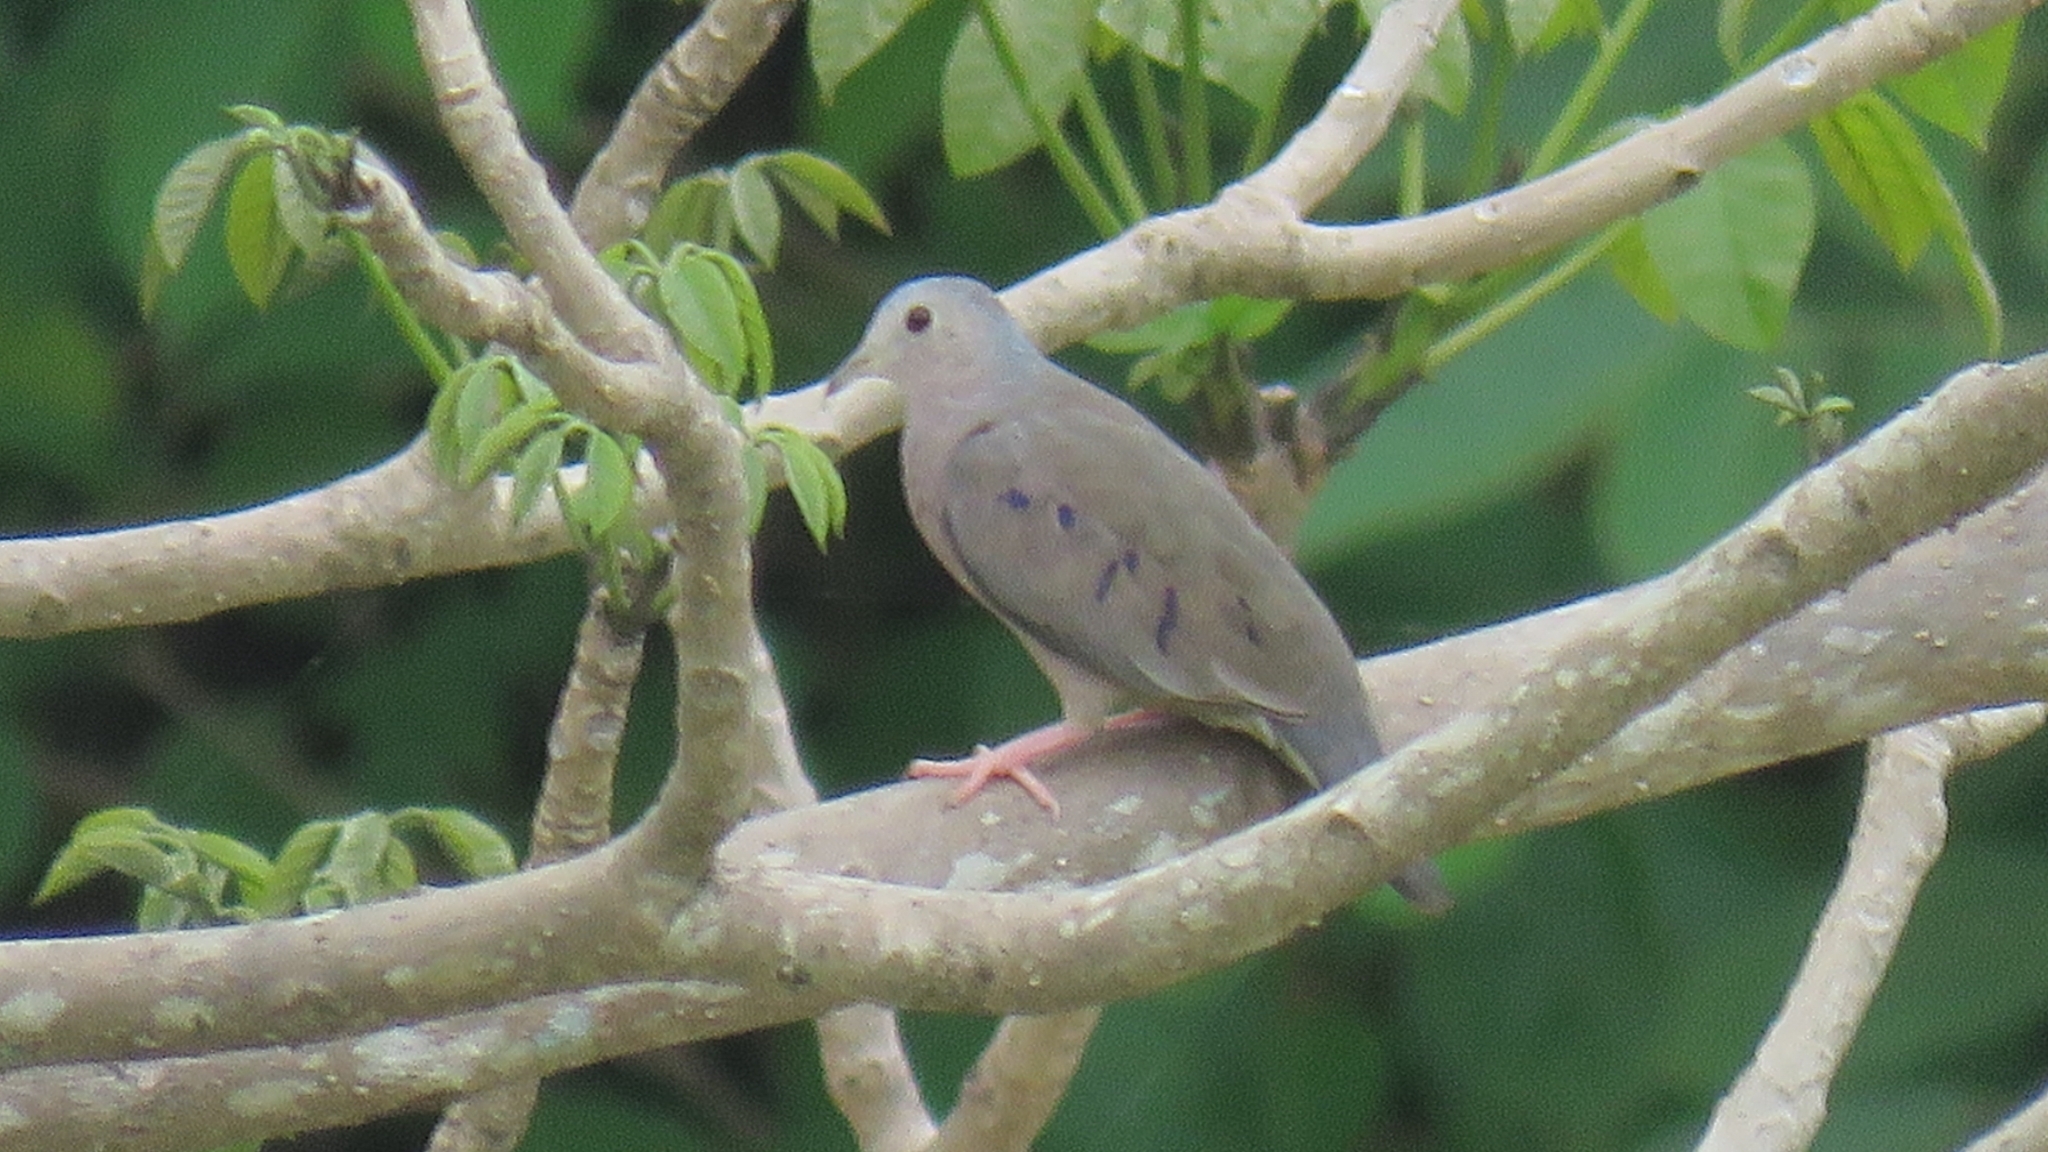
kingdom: Animalia
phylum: Chordata
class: Aves
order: Columbiformes
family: Columbidae
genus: Columbina
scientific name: Columbina minuta
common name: Plain-breasted ground dove
